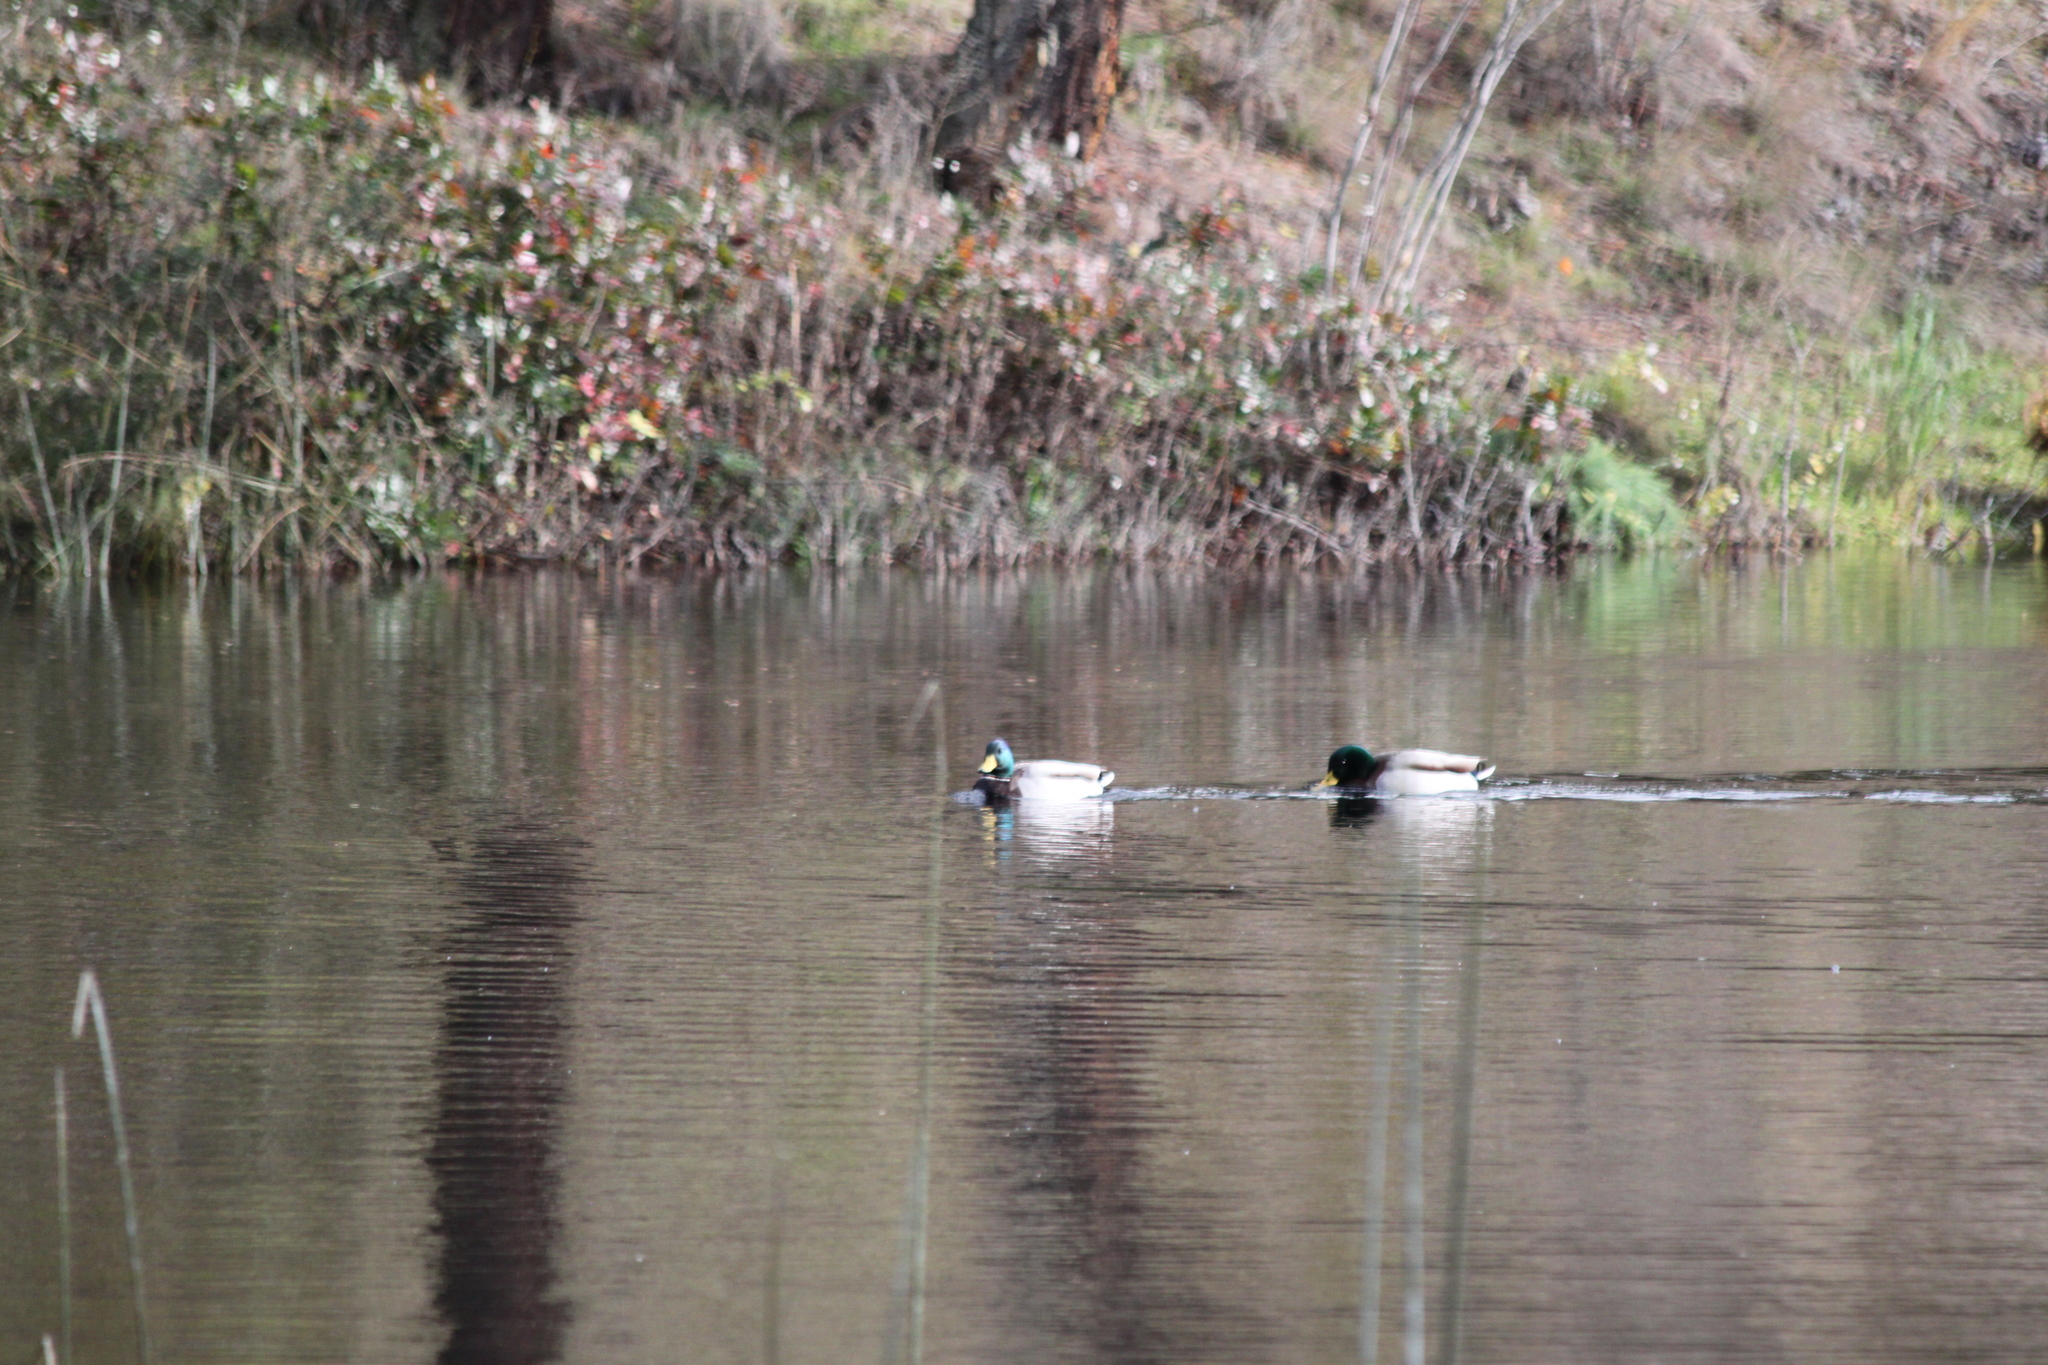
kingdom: Animalia
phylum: Chordata
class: Aves
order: Anseriformes
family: Anatidae
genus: Anas
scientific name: Anas platyrhynchos
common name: Mallard
